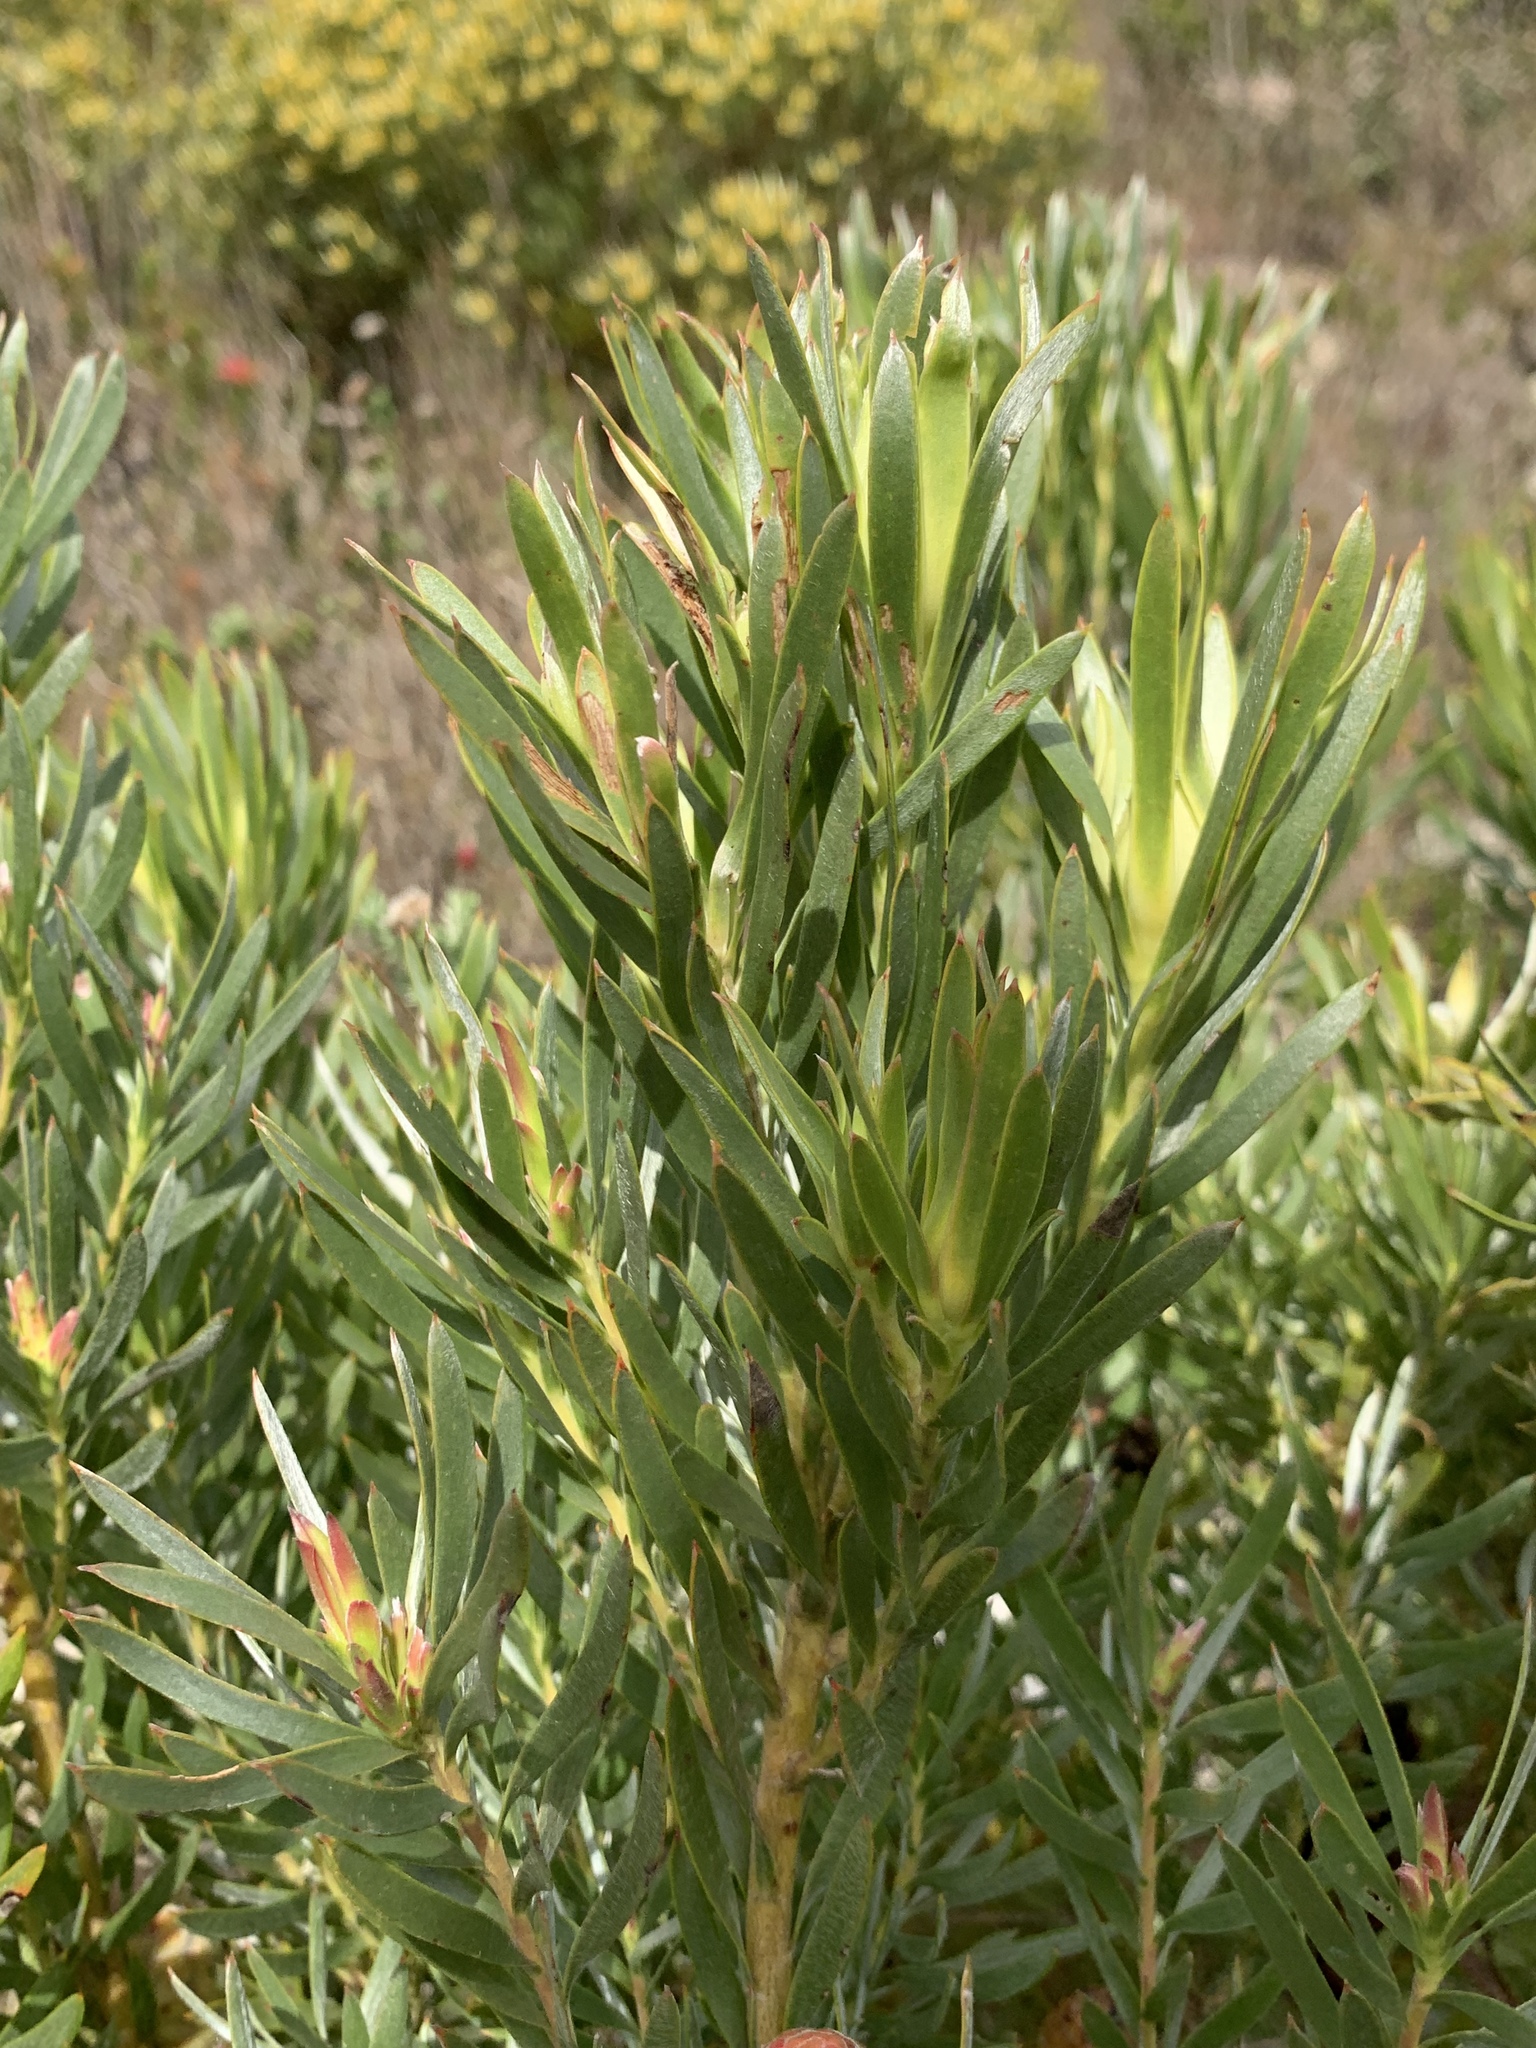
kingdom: Plantae
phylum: Tracheophyta
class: Magnoliopsida
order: Proteales
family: Proteaceae
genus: Leucadendron
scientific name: Leucadendron xanthoconus
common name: Sickle-leaf conebush
